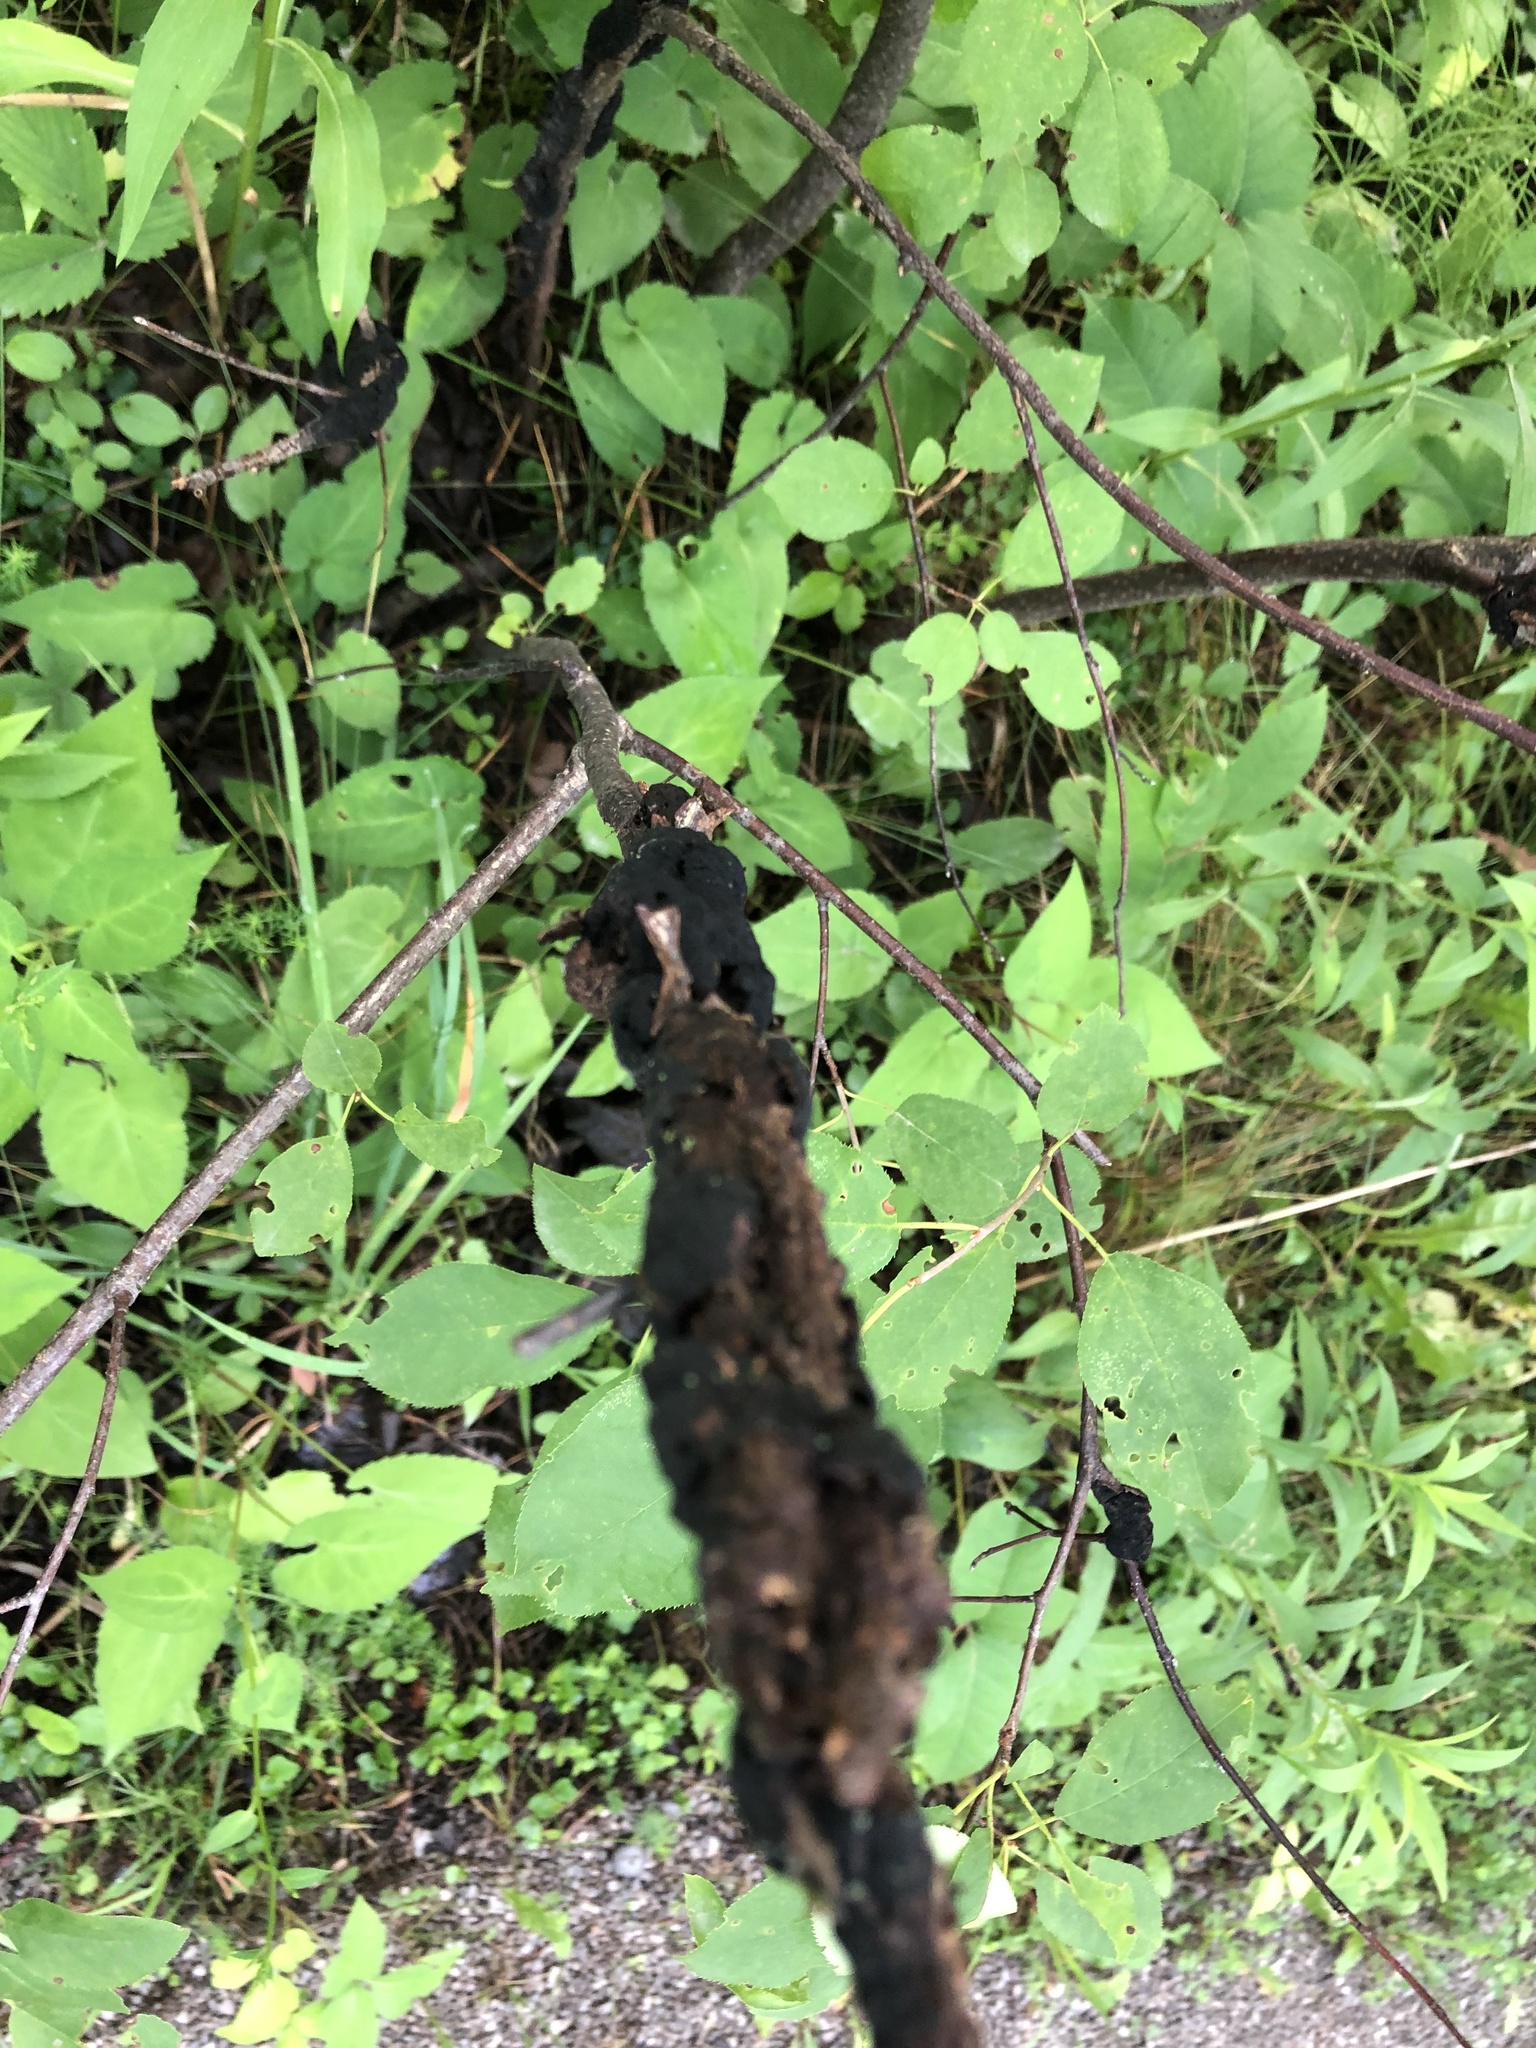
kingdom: Fungi
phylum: Ascomycota
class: Dothideomycetes
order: Venturiales
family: Venturiaceae
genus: Apiosporina
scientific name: Apiosporina morbosa
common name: Black knot
